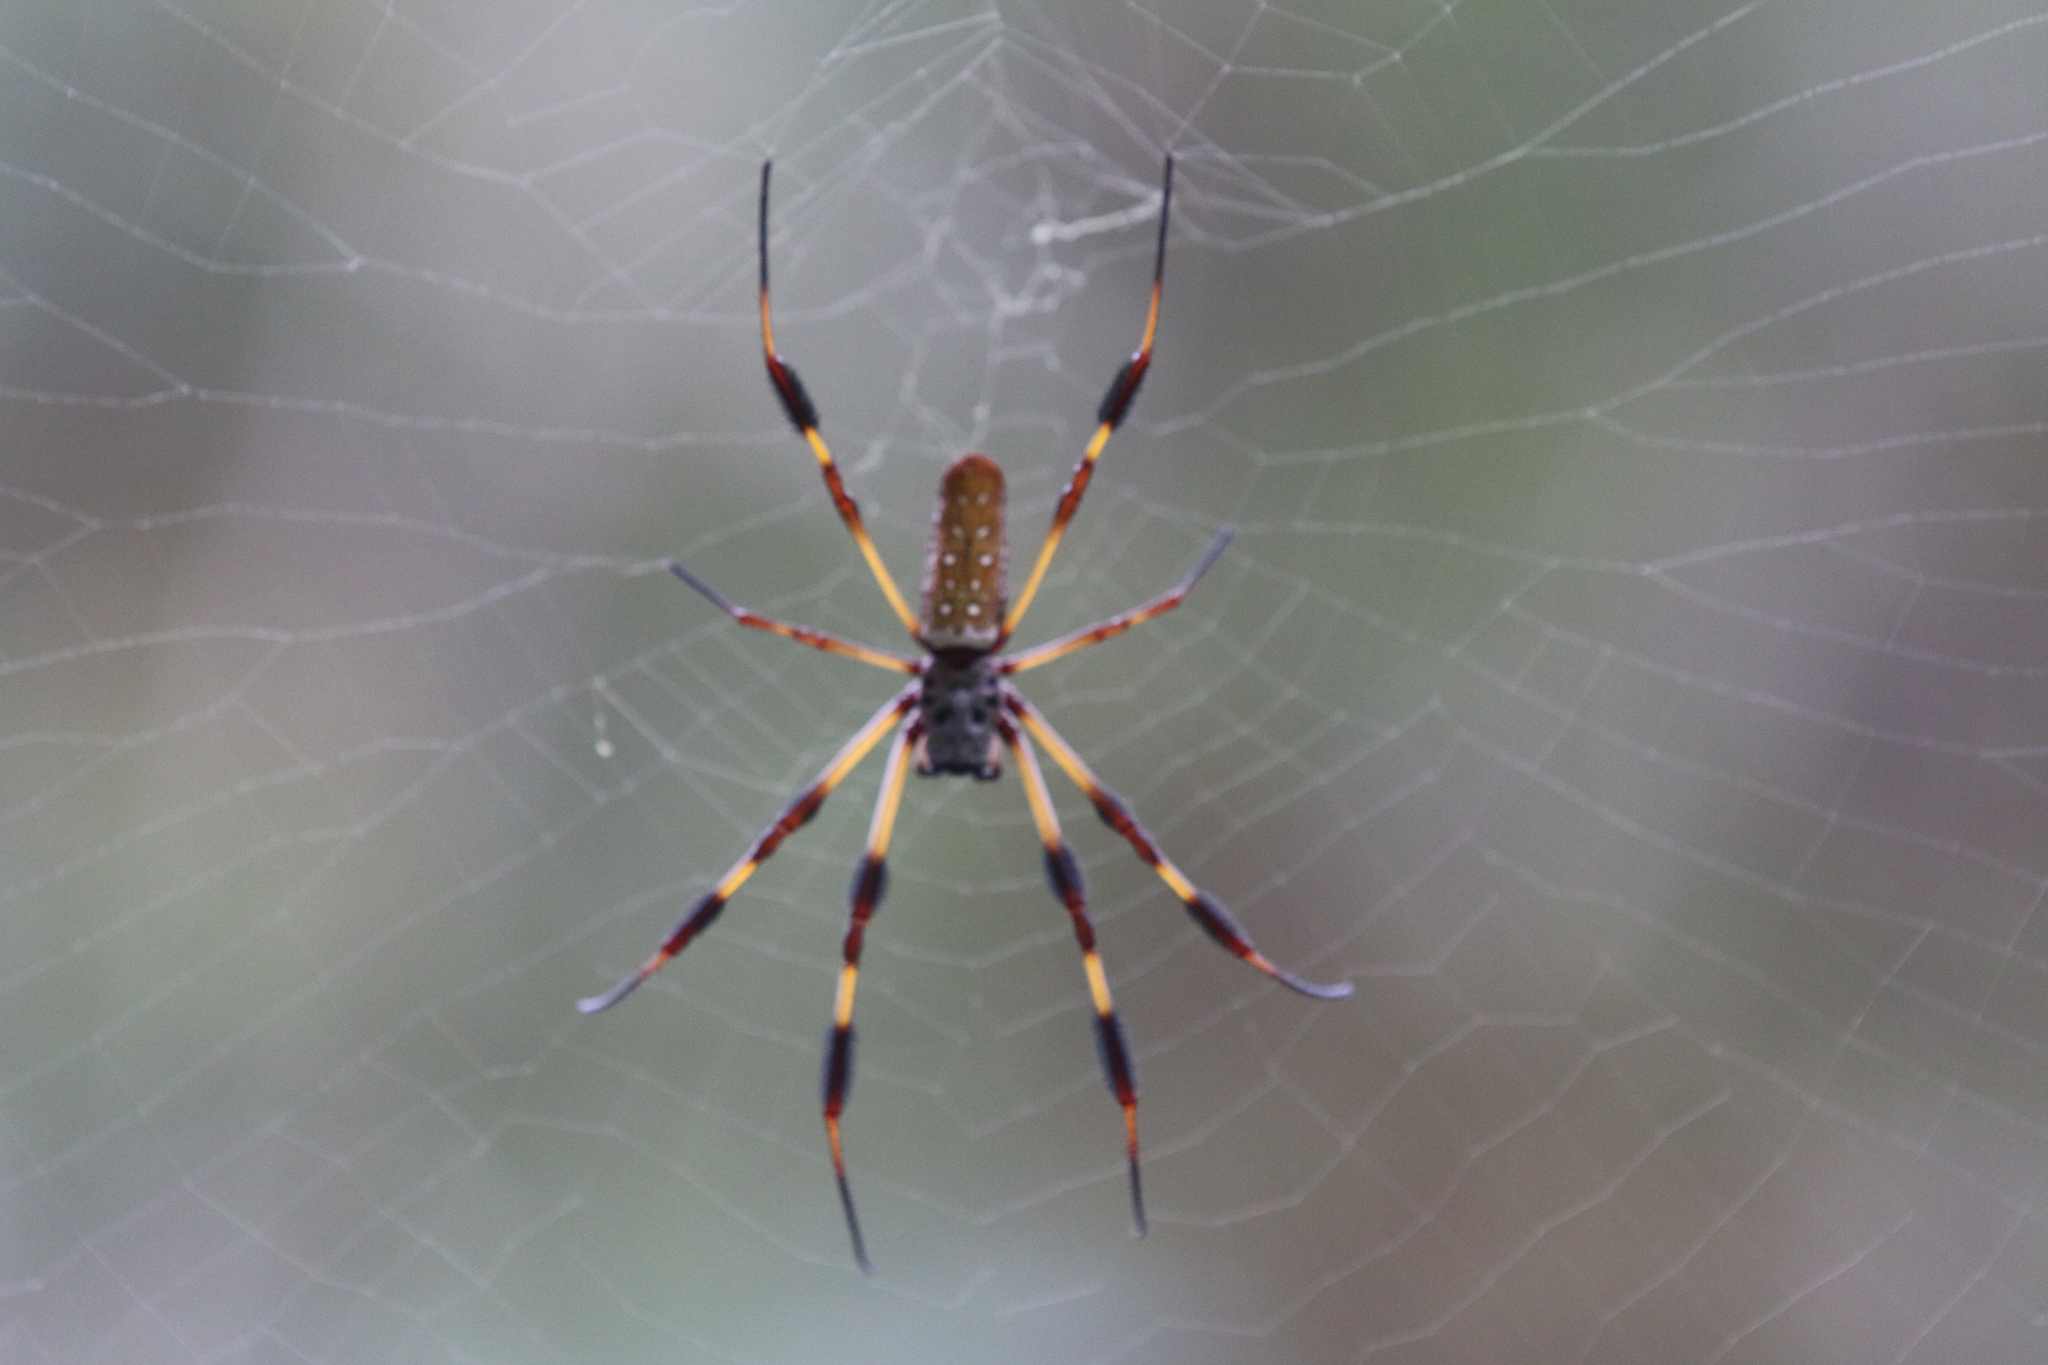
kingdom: Animalia
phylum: Arthropoda
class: Arachnida
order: Araneae
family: Araneidae
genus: Trichonephila
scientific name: Trichonephila clavipes
